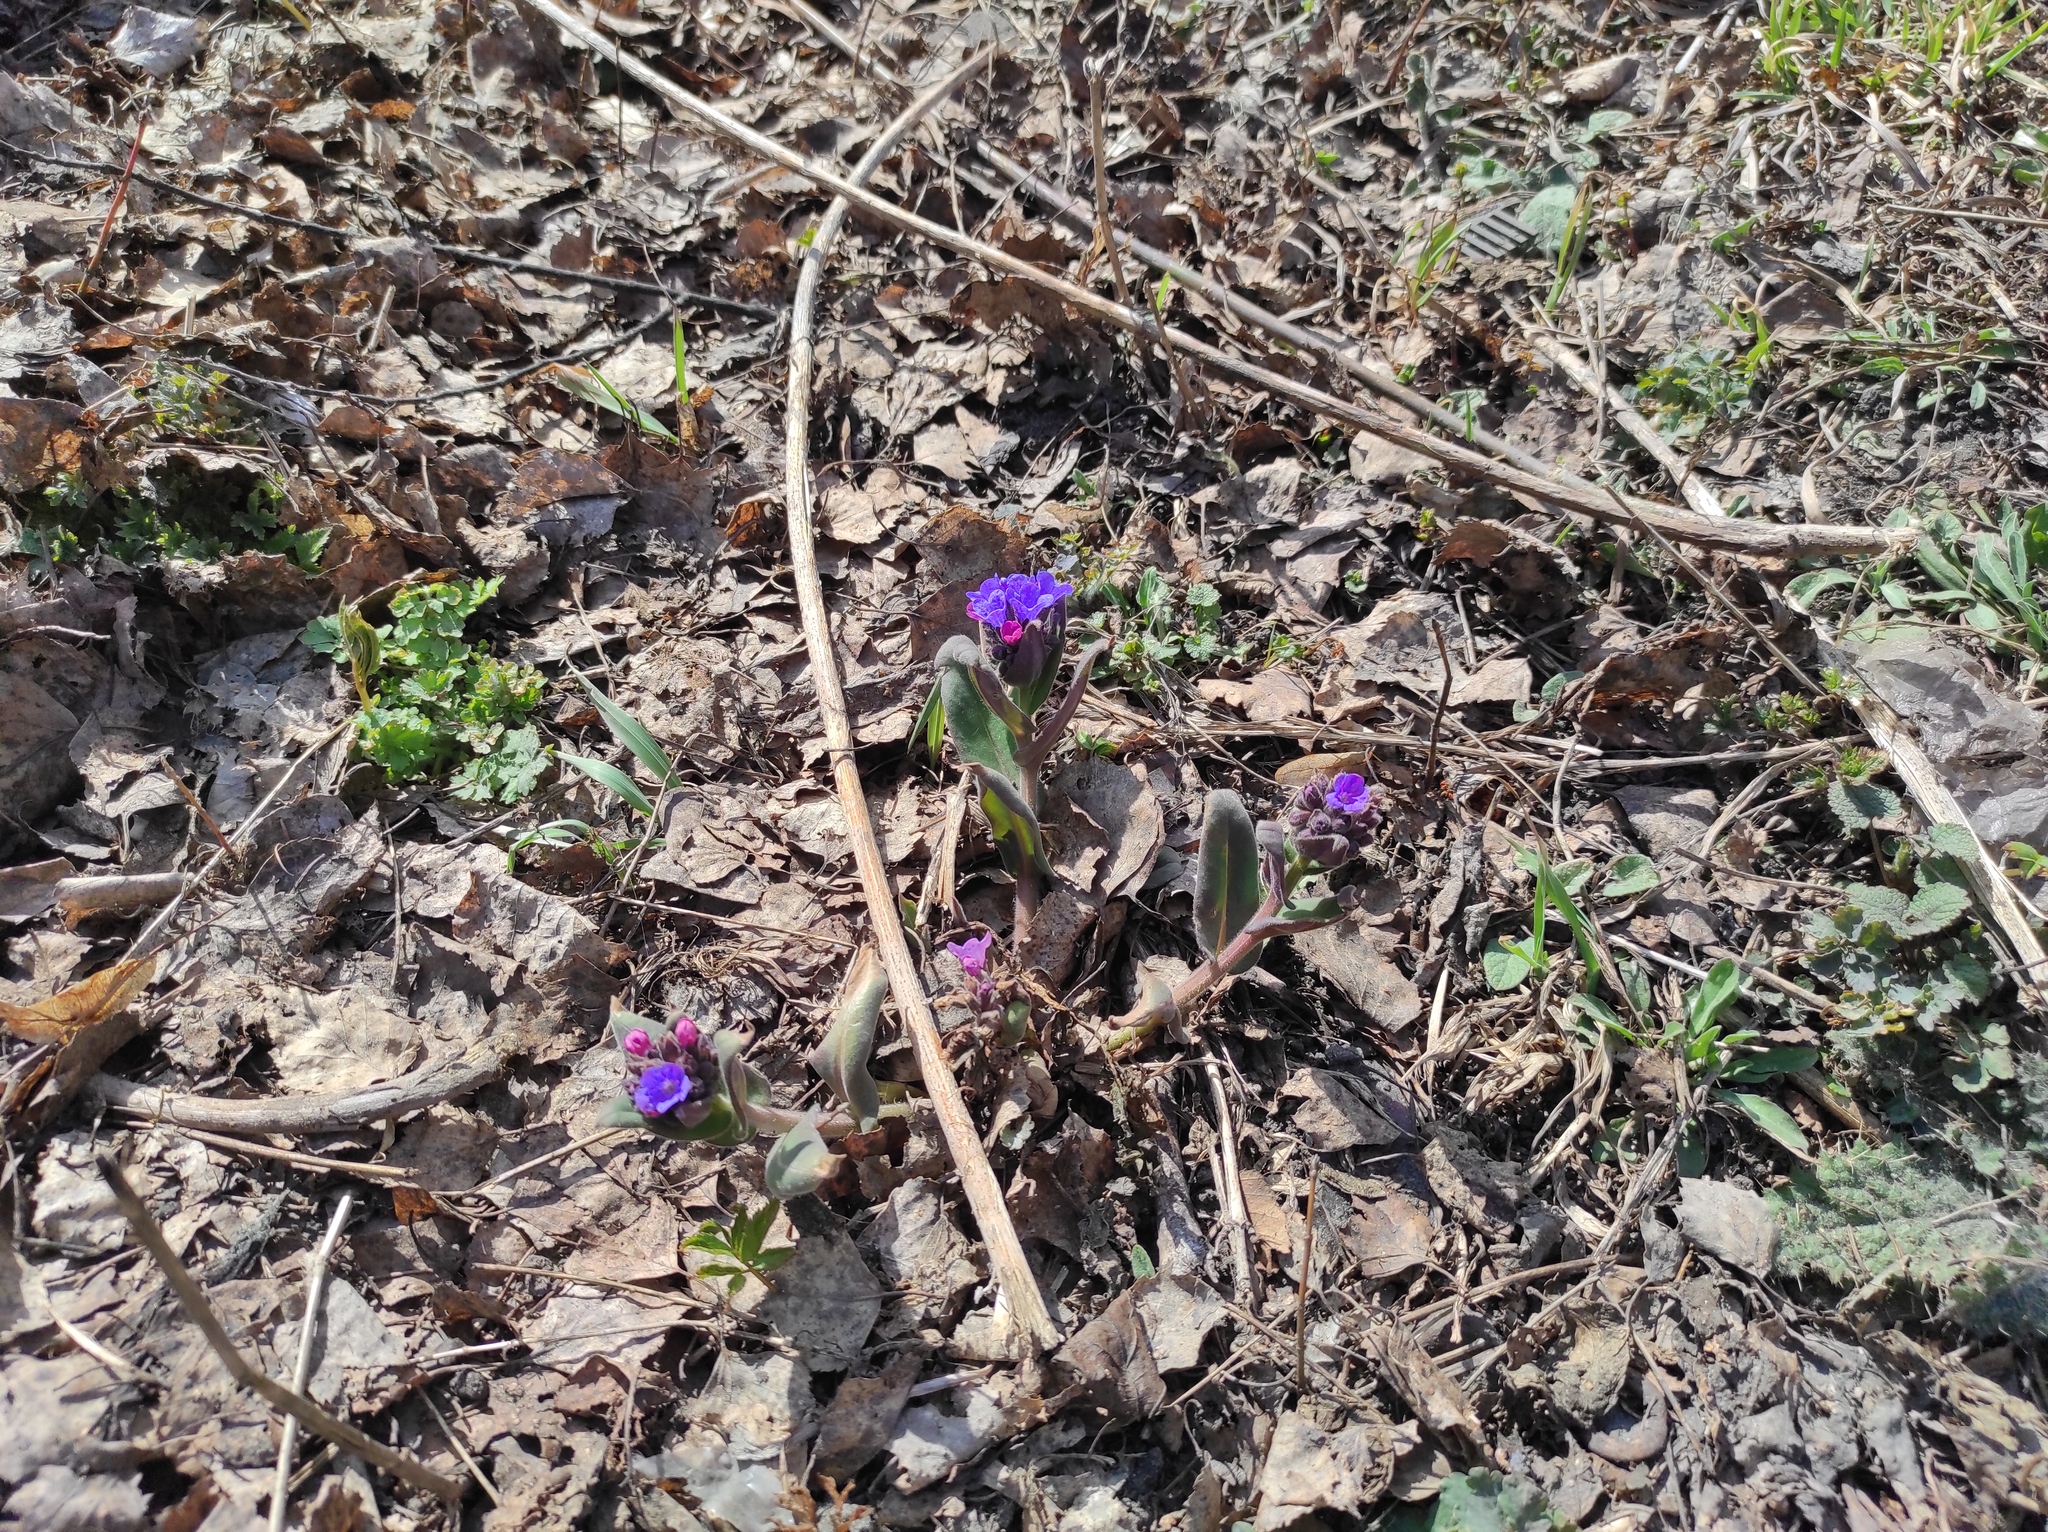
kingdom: Plantae
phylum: Tracheophyta
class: Magnoliopsida
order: Boraginales
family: Boraginaceae
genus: Pulmonaria
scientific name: Pulmonaria mollis
